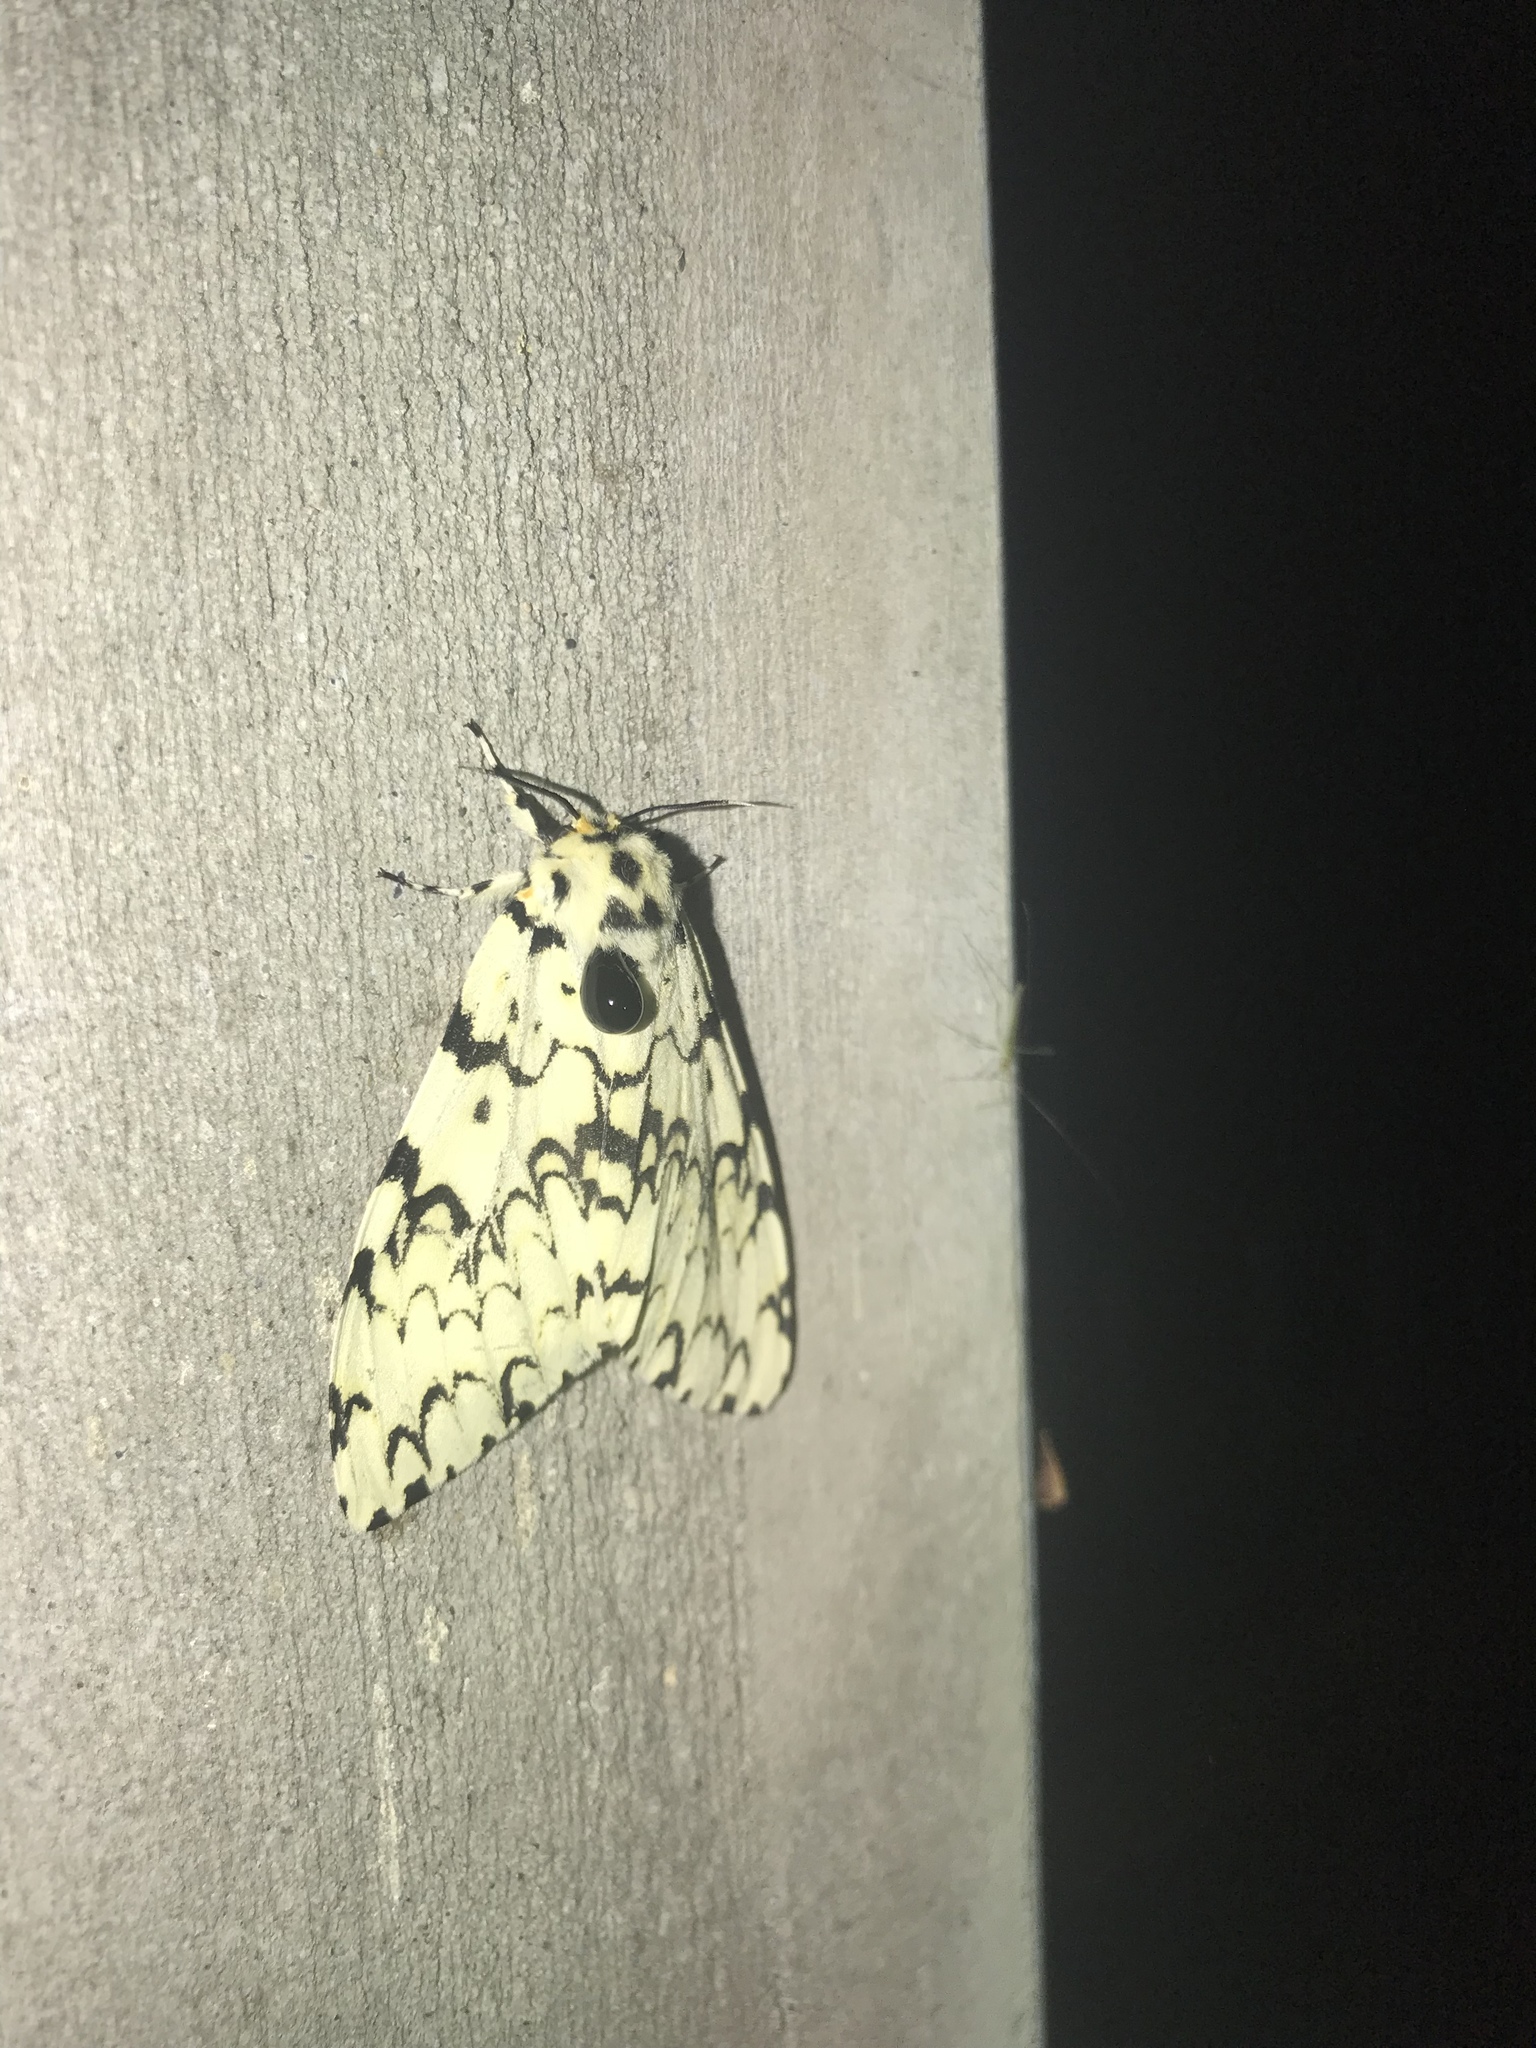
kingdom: Animalia
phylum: Arthropoda
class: Insecta
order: Lepidoptera
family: Erebidae
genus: Lymantria
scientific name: Lymantria sugii
